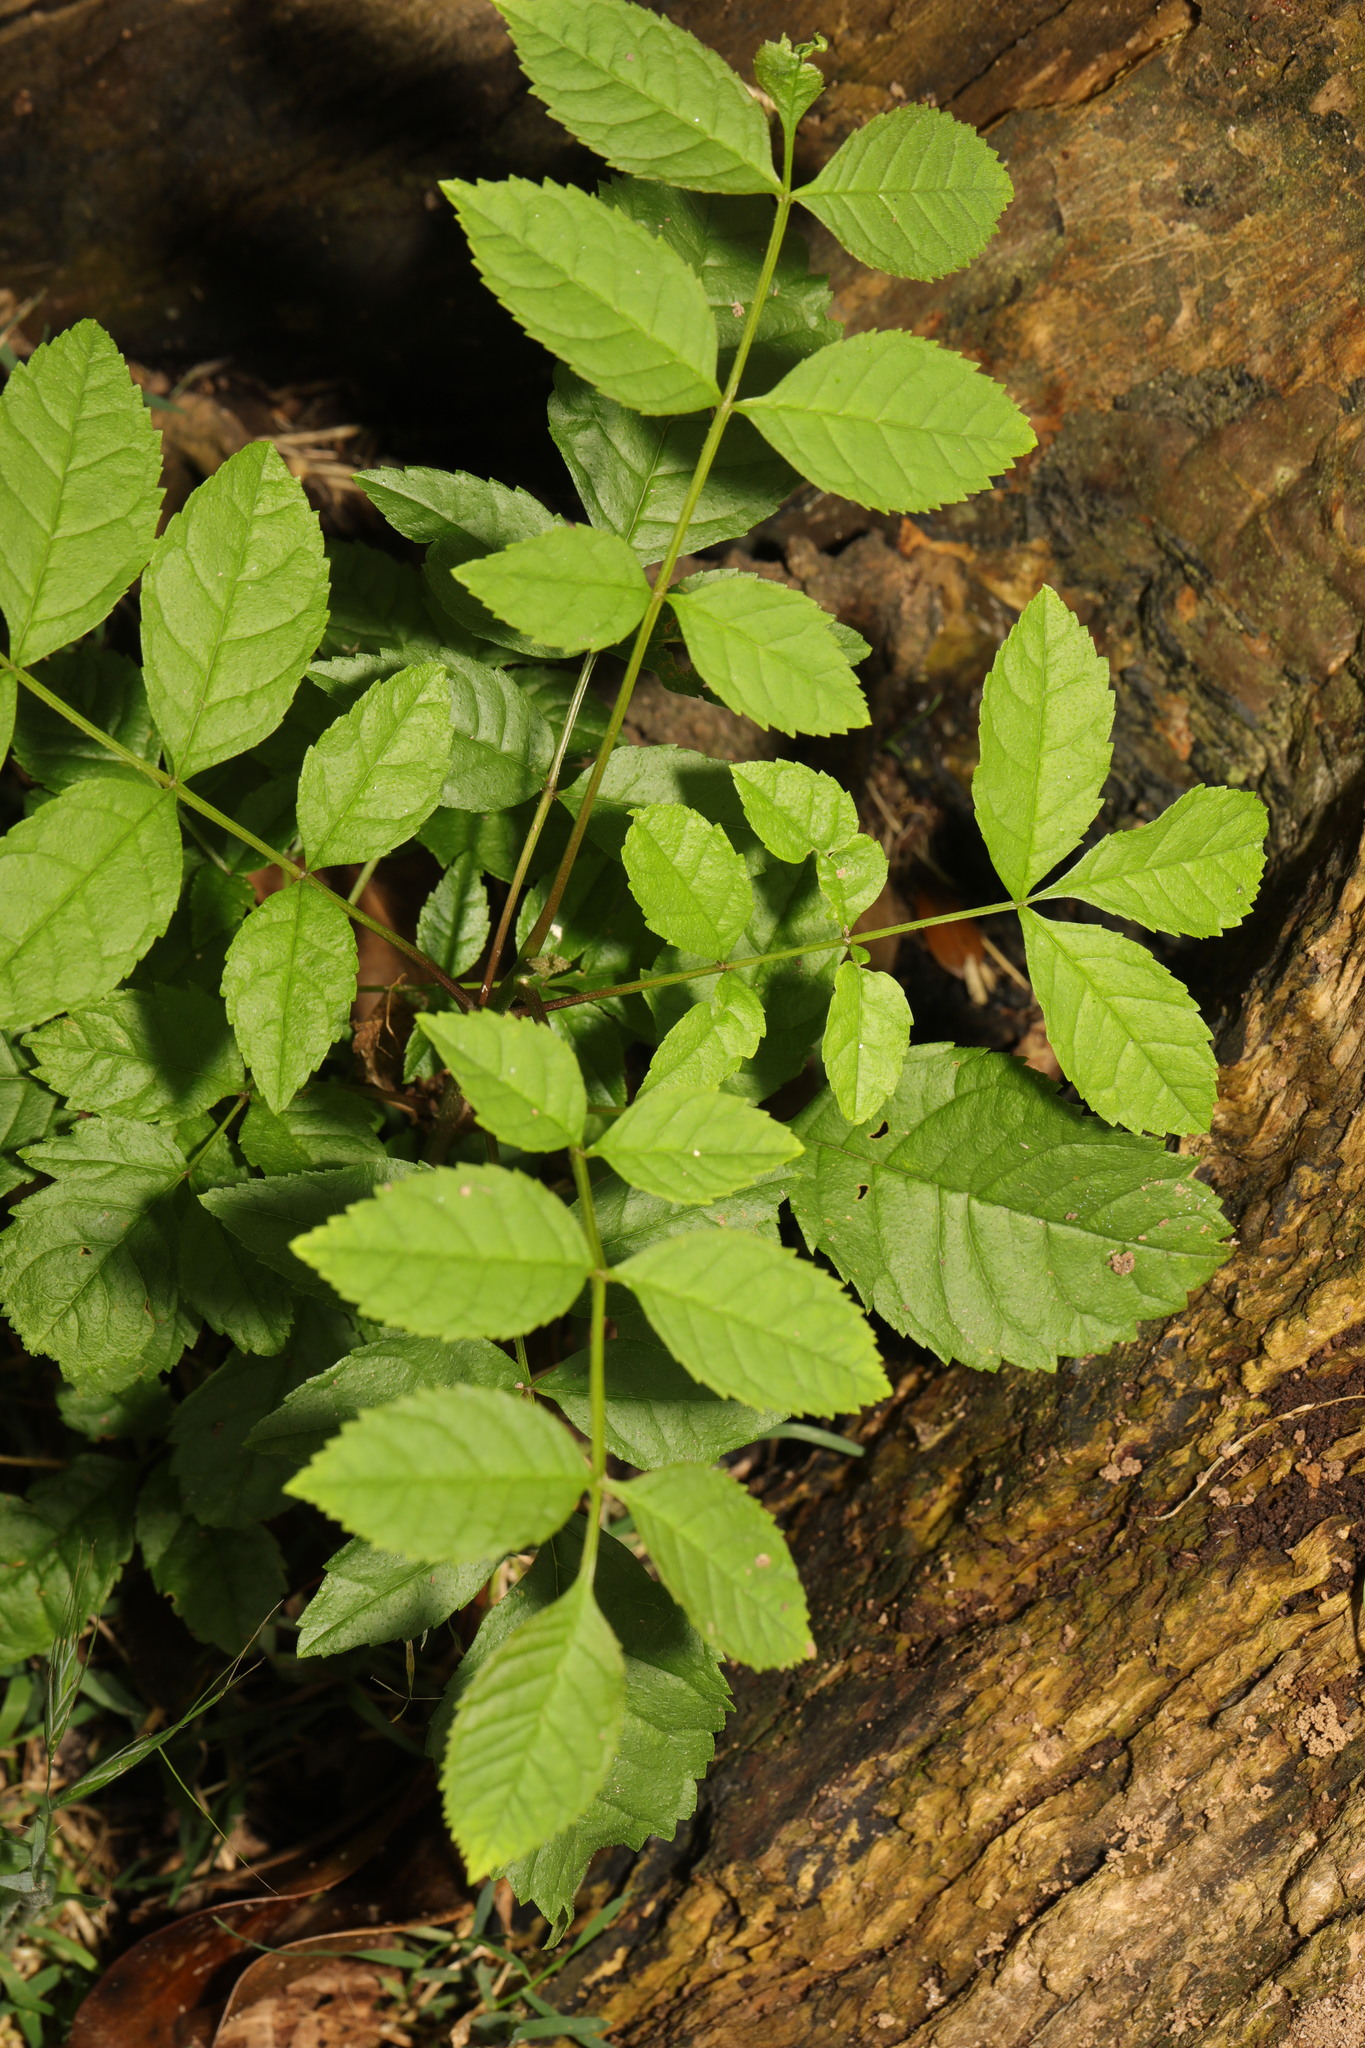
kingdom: Plantae
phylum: Tracheophyta
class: Magnoliopsida
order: Lamiales
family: Oleaceae
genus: Fraxinus
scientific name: Fraxinus excelsior
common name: European ash
